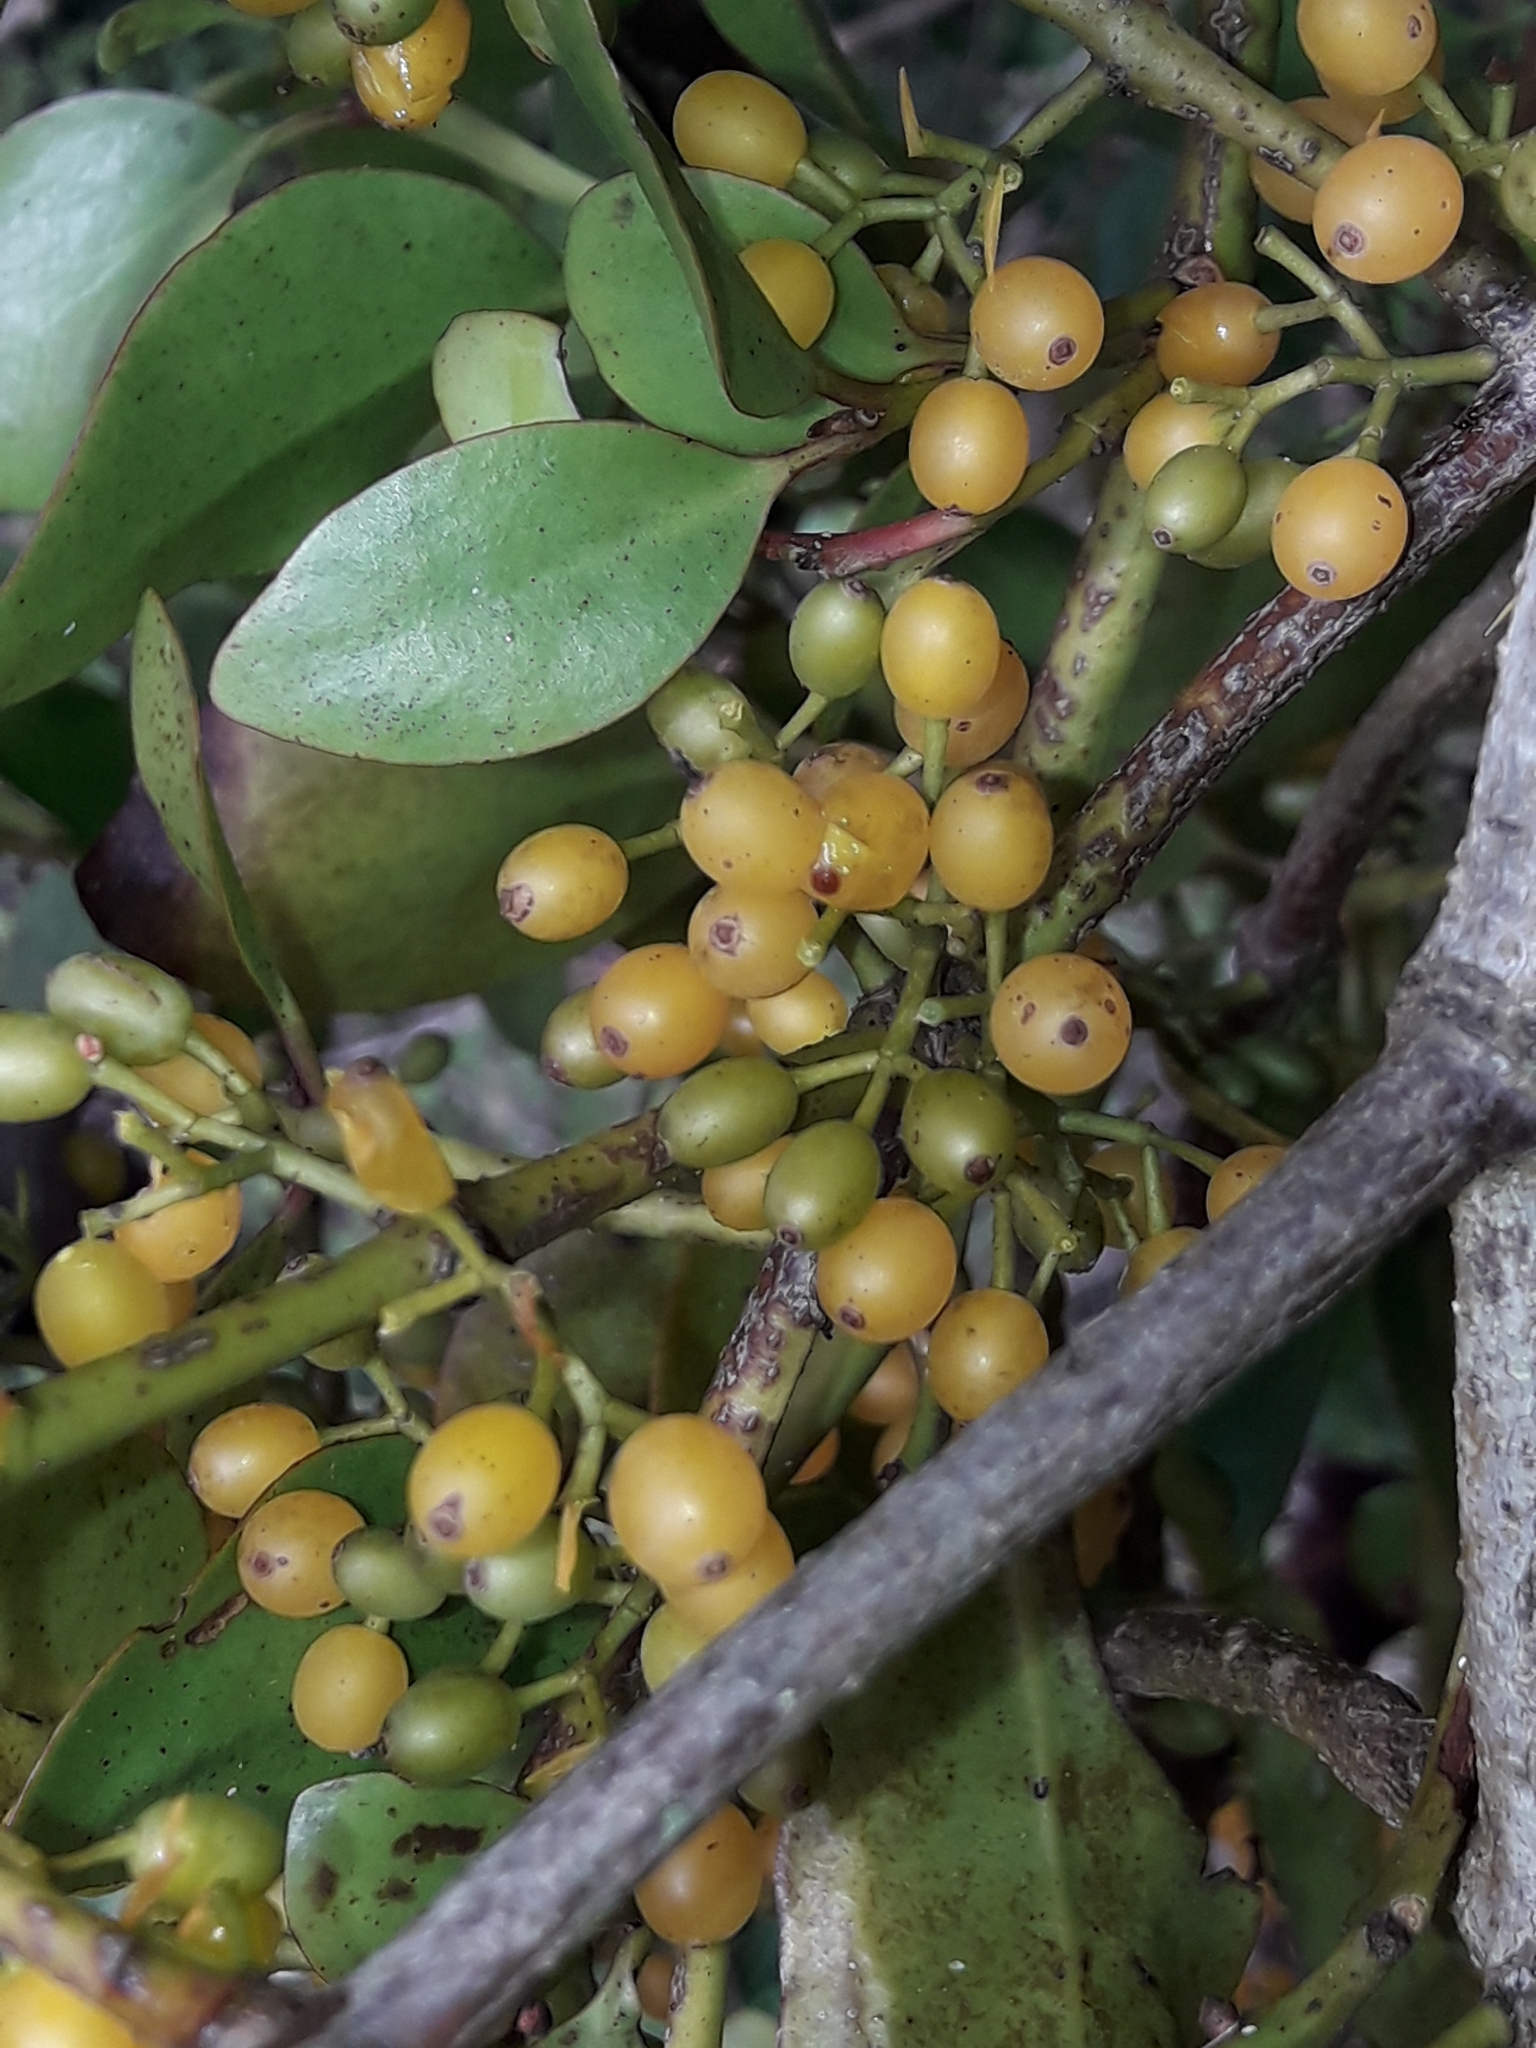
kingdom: Plantae
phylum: Tracheophyta
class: Magnoliopsida
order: Santalales
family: Loranthaceae
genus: Ileostylus
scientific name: Ileostylus micranthus
